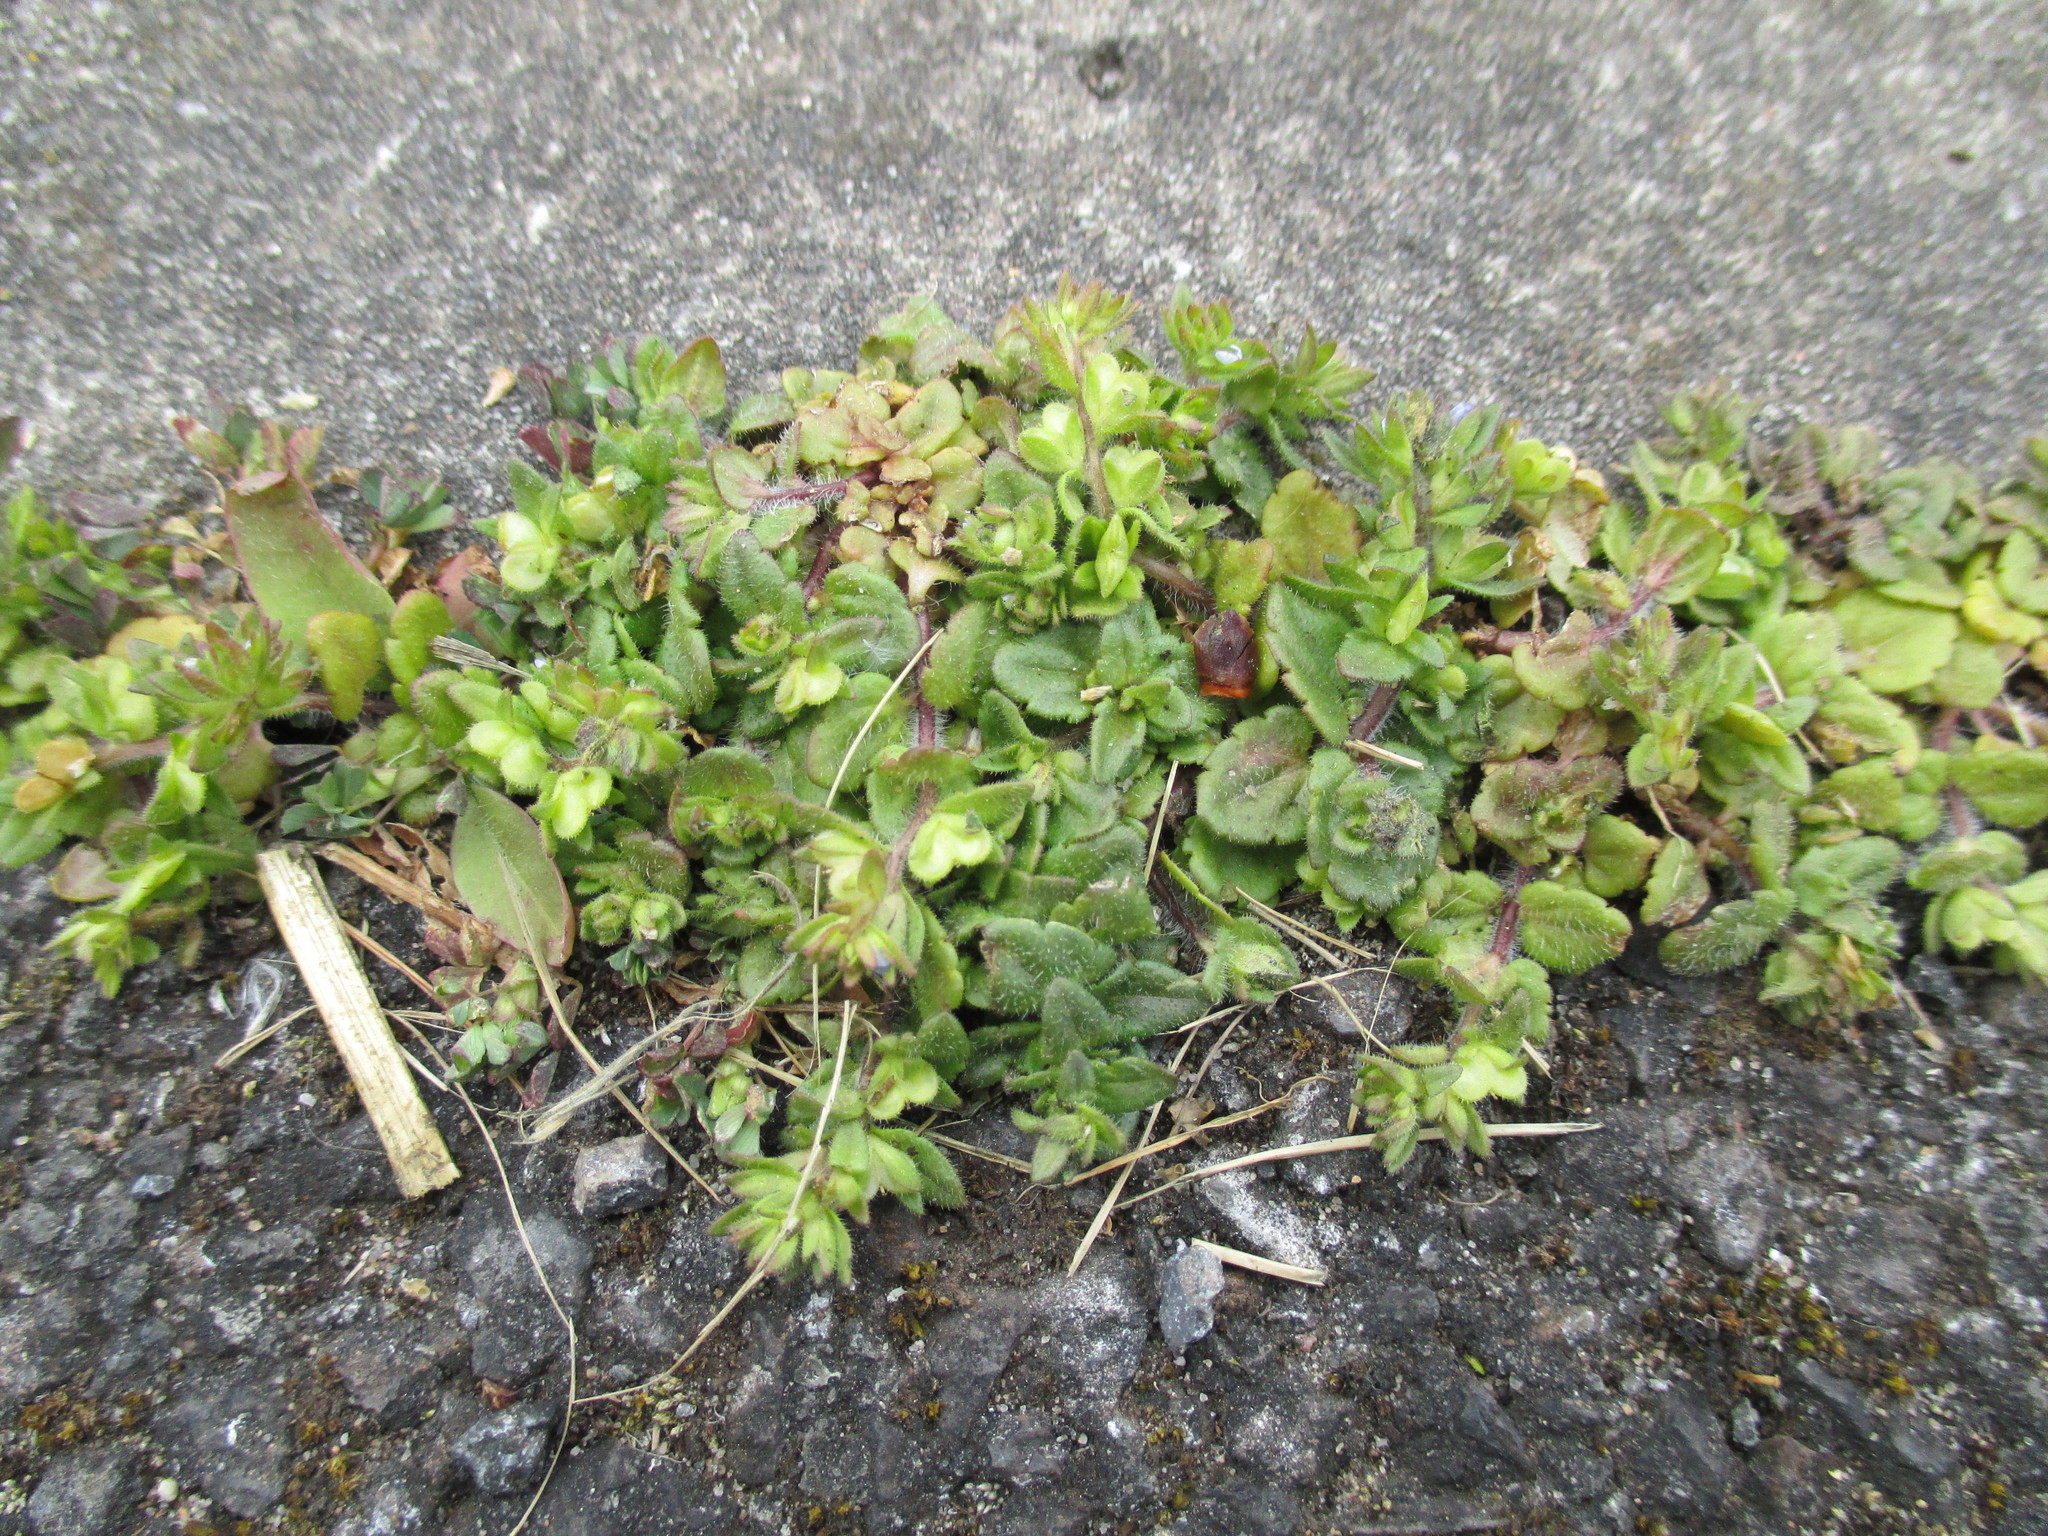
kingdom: Plantae
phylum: Tracheophyta
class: Magnoliopsida
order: Lamiales
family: Plantaginaceae
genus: Veronica
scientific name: Veronica arvensis
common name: Corn speedwell
